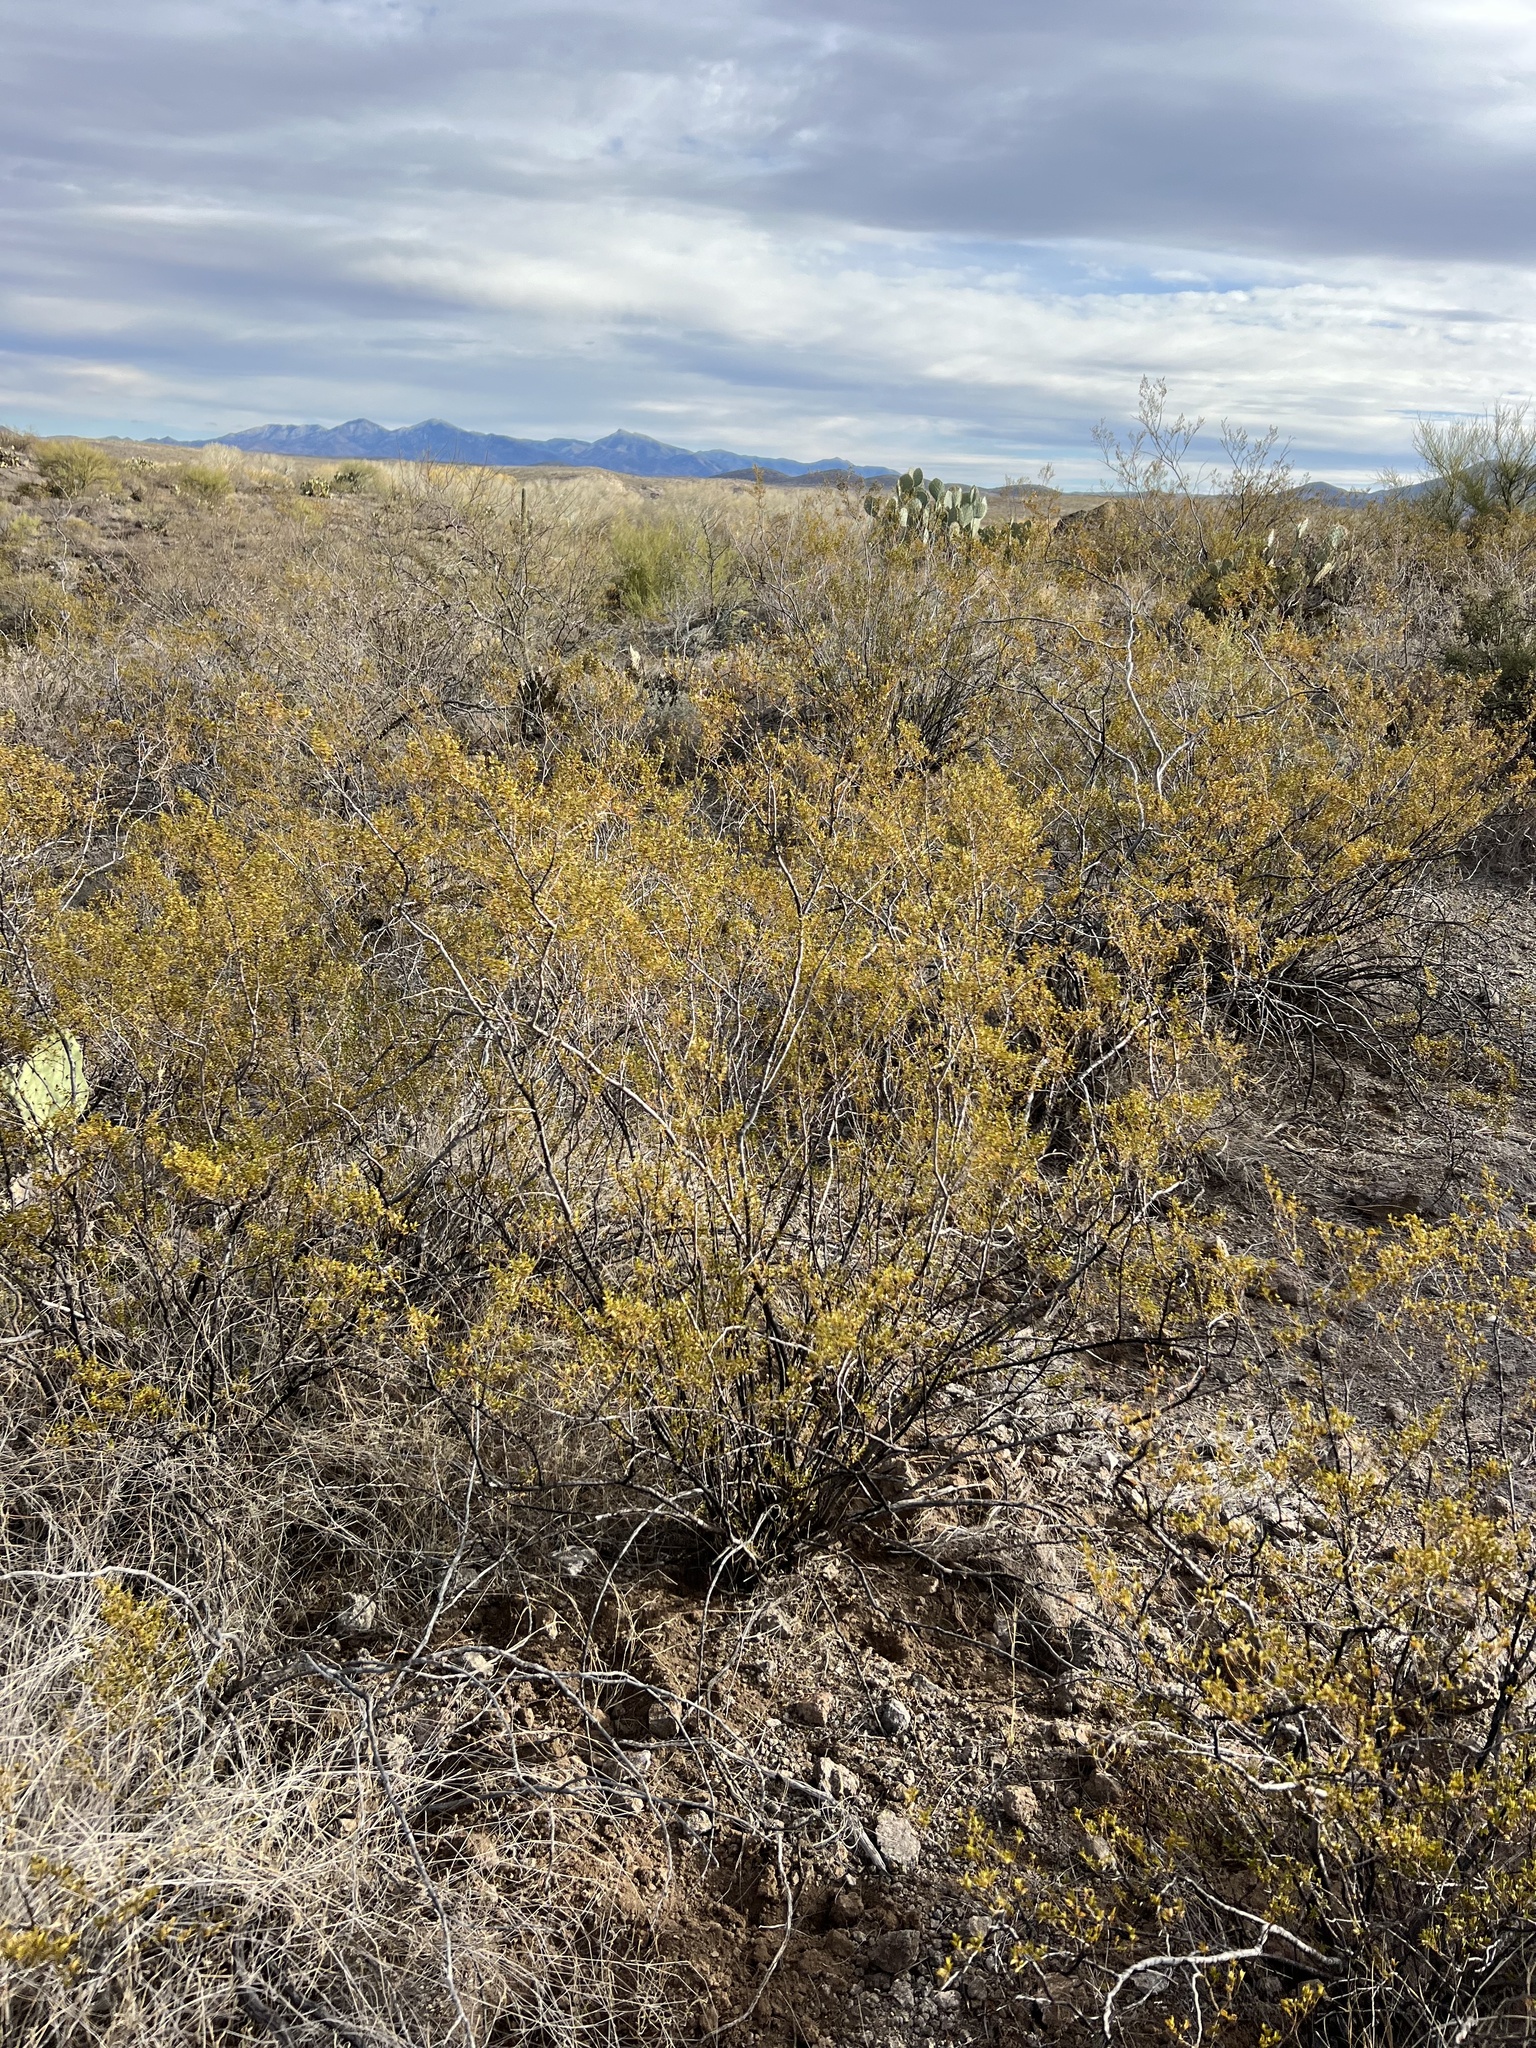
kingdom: Plantae
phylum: Tracheophyta
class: Magnoliopsida
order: Zygophyllales
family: Zygophyllaceae
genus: Larrea
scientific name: Larrea tridentata
